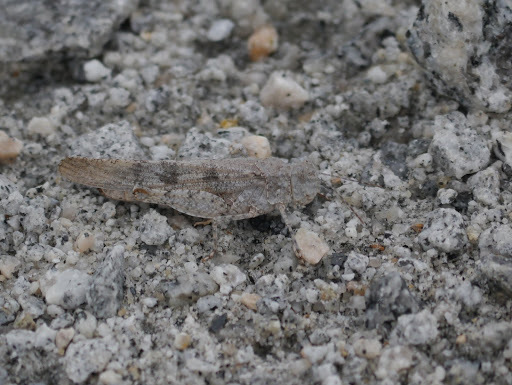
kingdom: Animalia
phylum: Arthropoda
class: Insecta
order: Orthoptera
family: Acrididae
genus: Trimerotropis
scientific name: Trimerotropis maritima
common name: Seaside locust
